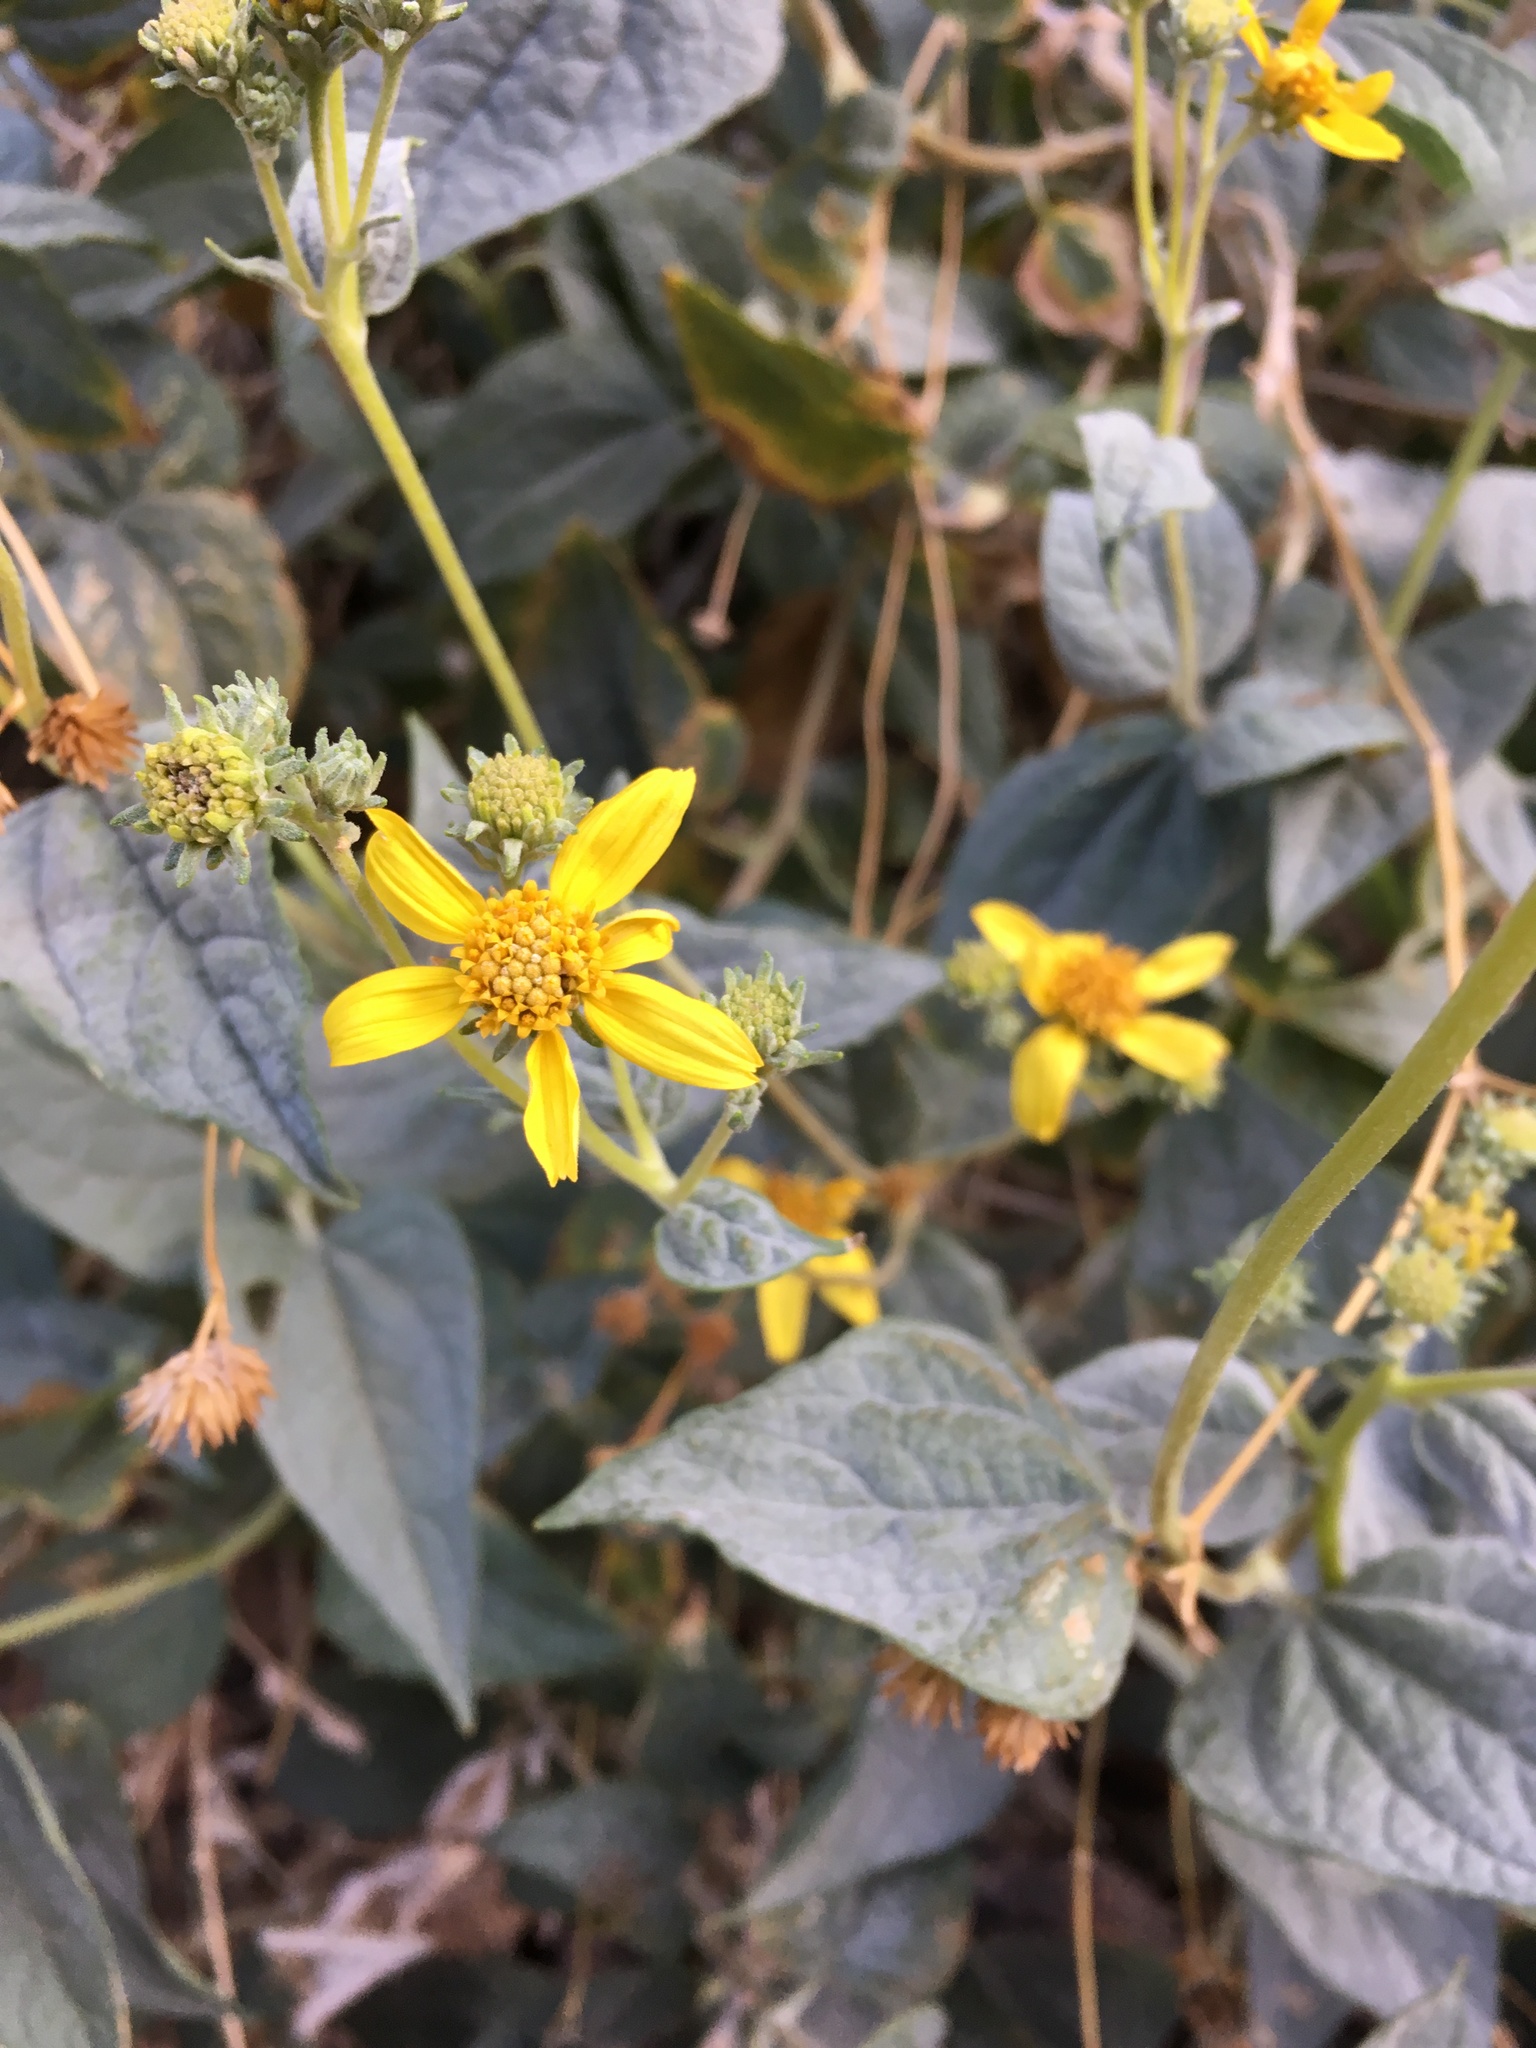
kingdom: Plantae
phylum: Tracheophyta
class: Magnoliopsida
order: Asterales
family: Asteraceae
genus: Bahiopsis
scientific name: Bahiopsis reticulata
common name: Death valley goldeneye
